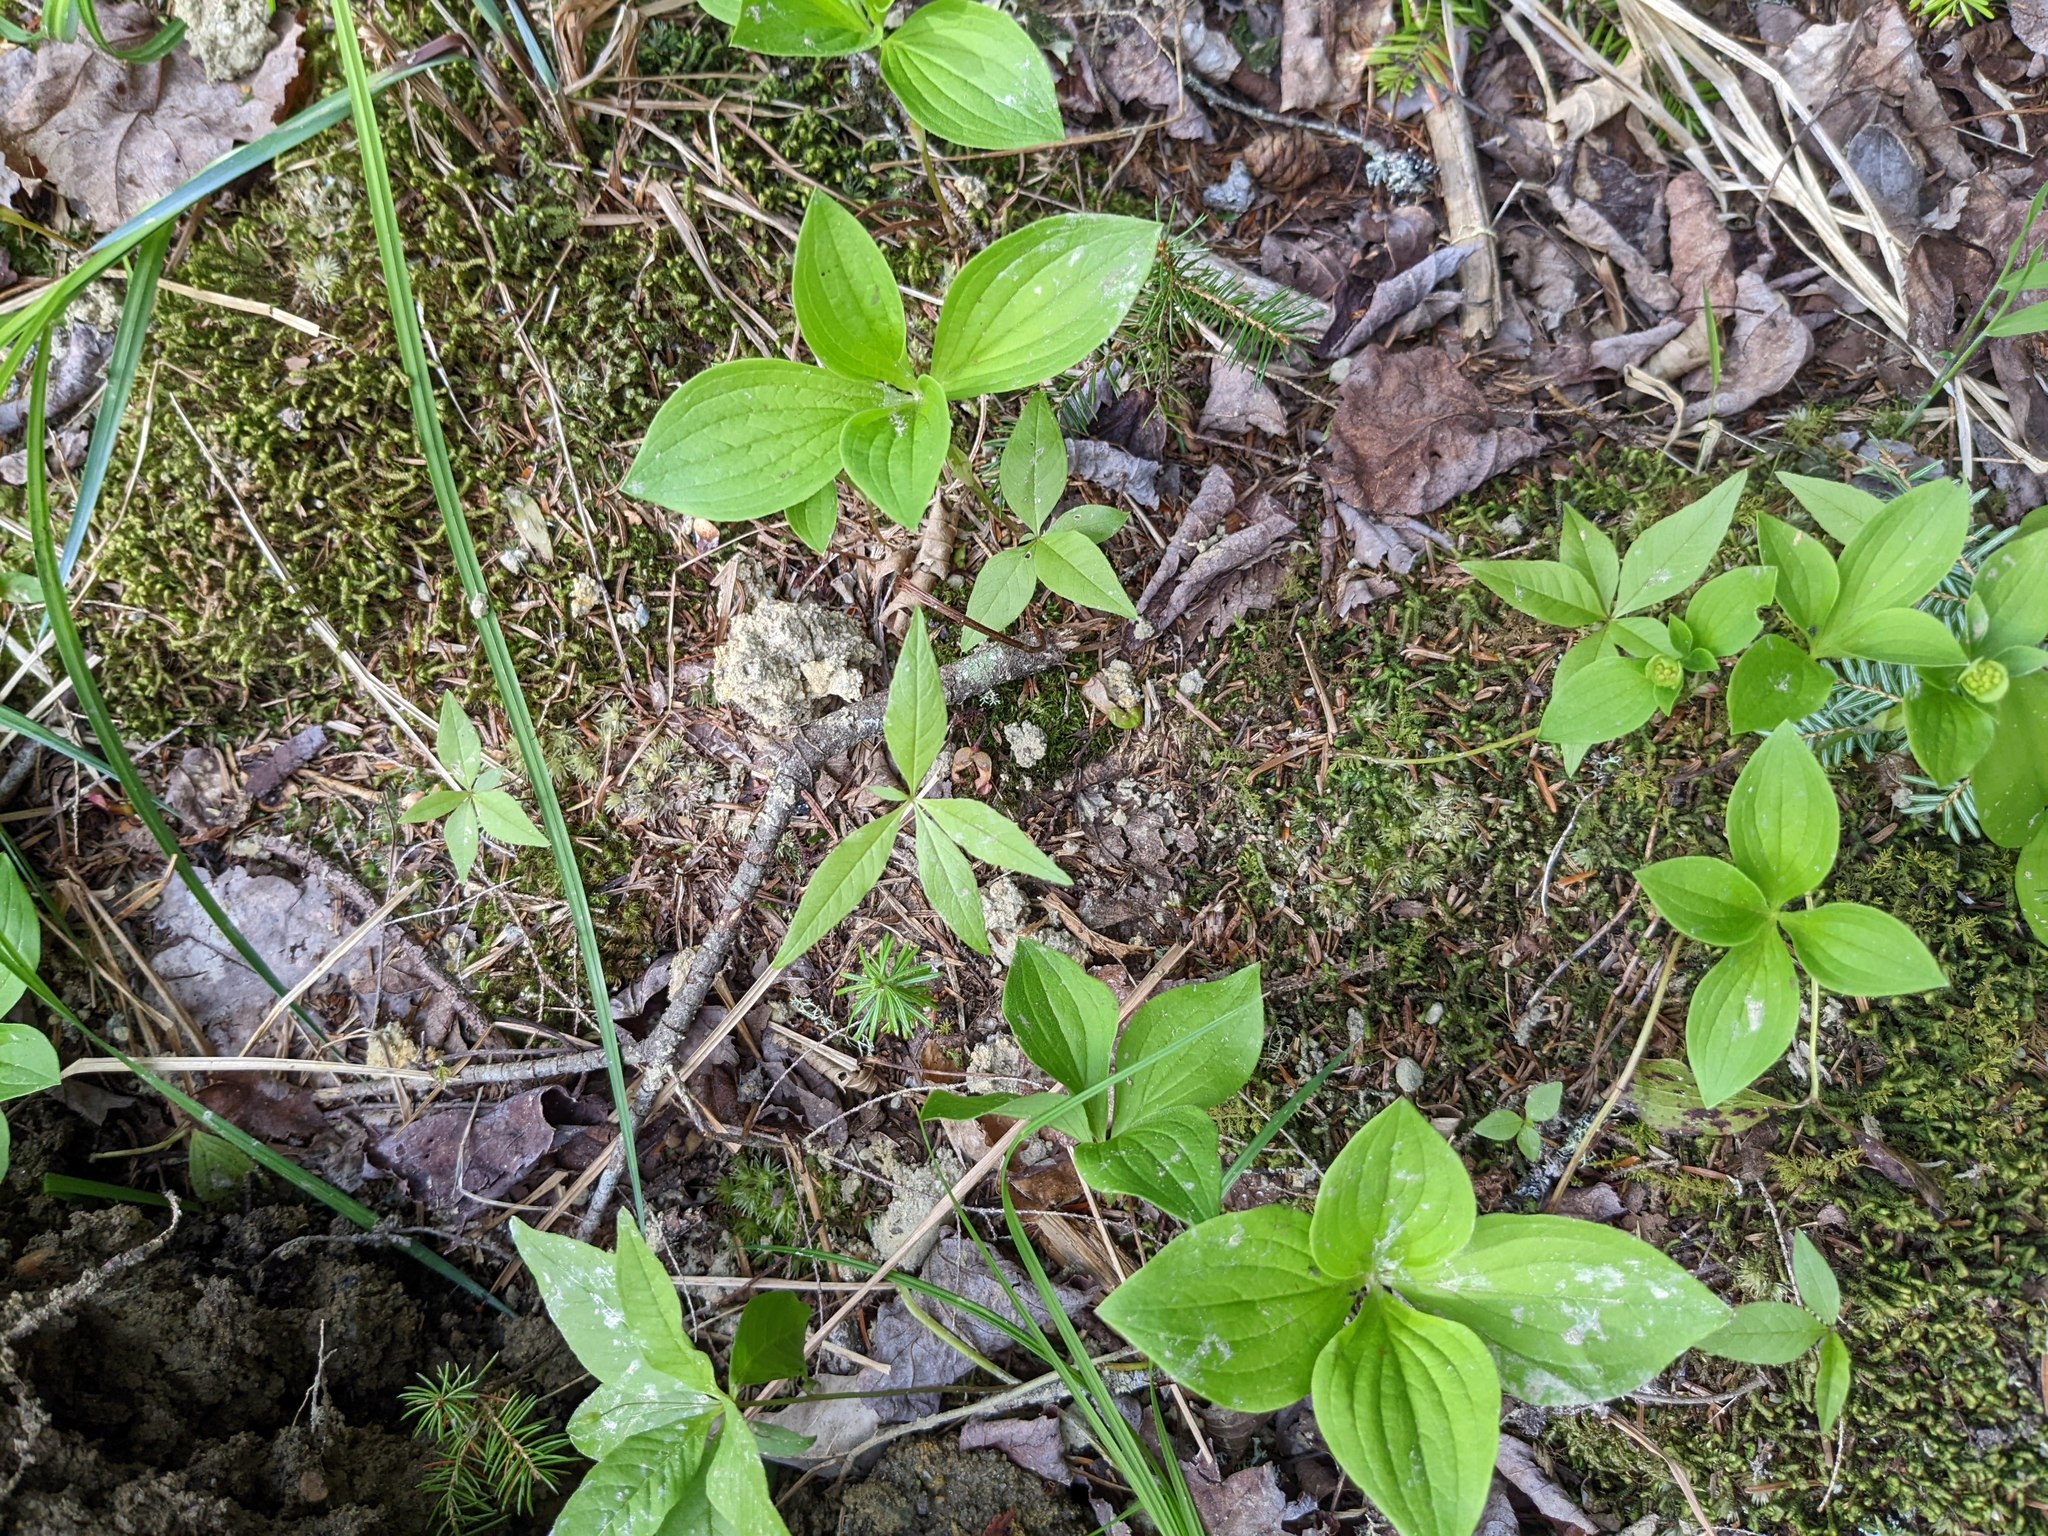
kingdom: Plantae
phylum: Tracheophyta
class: Magnoliopsida
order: Cornales
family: Cornaceae
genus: Cornus
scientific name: Cornus canadensis
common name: Creeping dogwood
